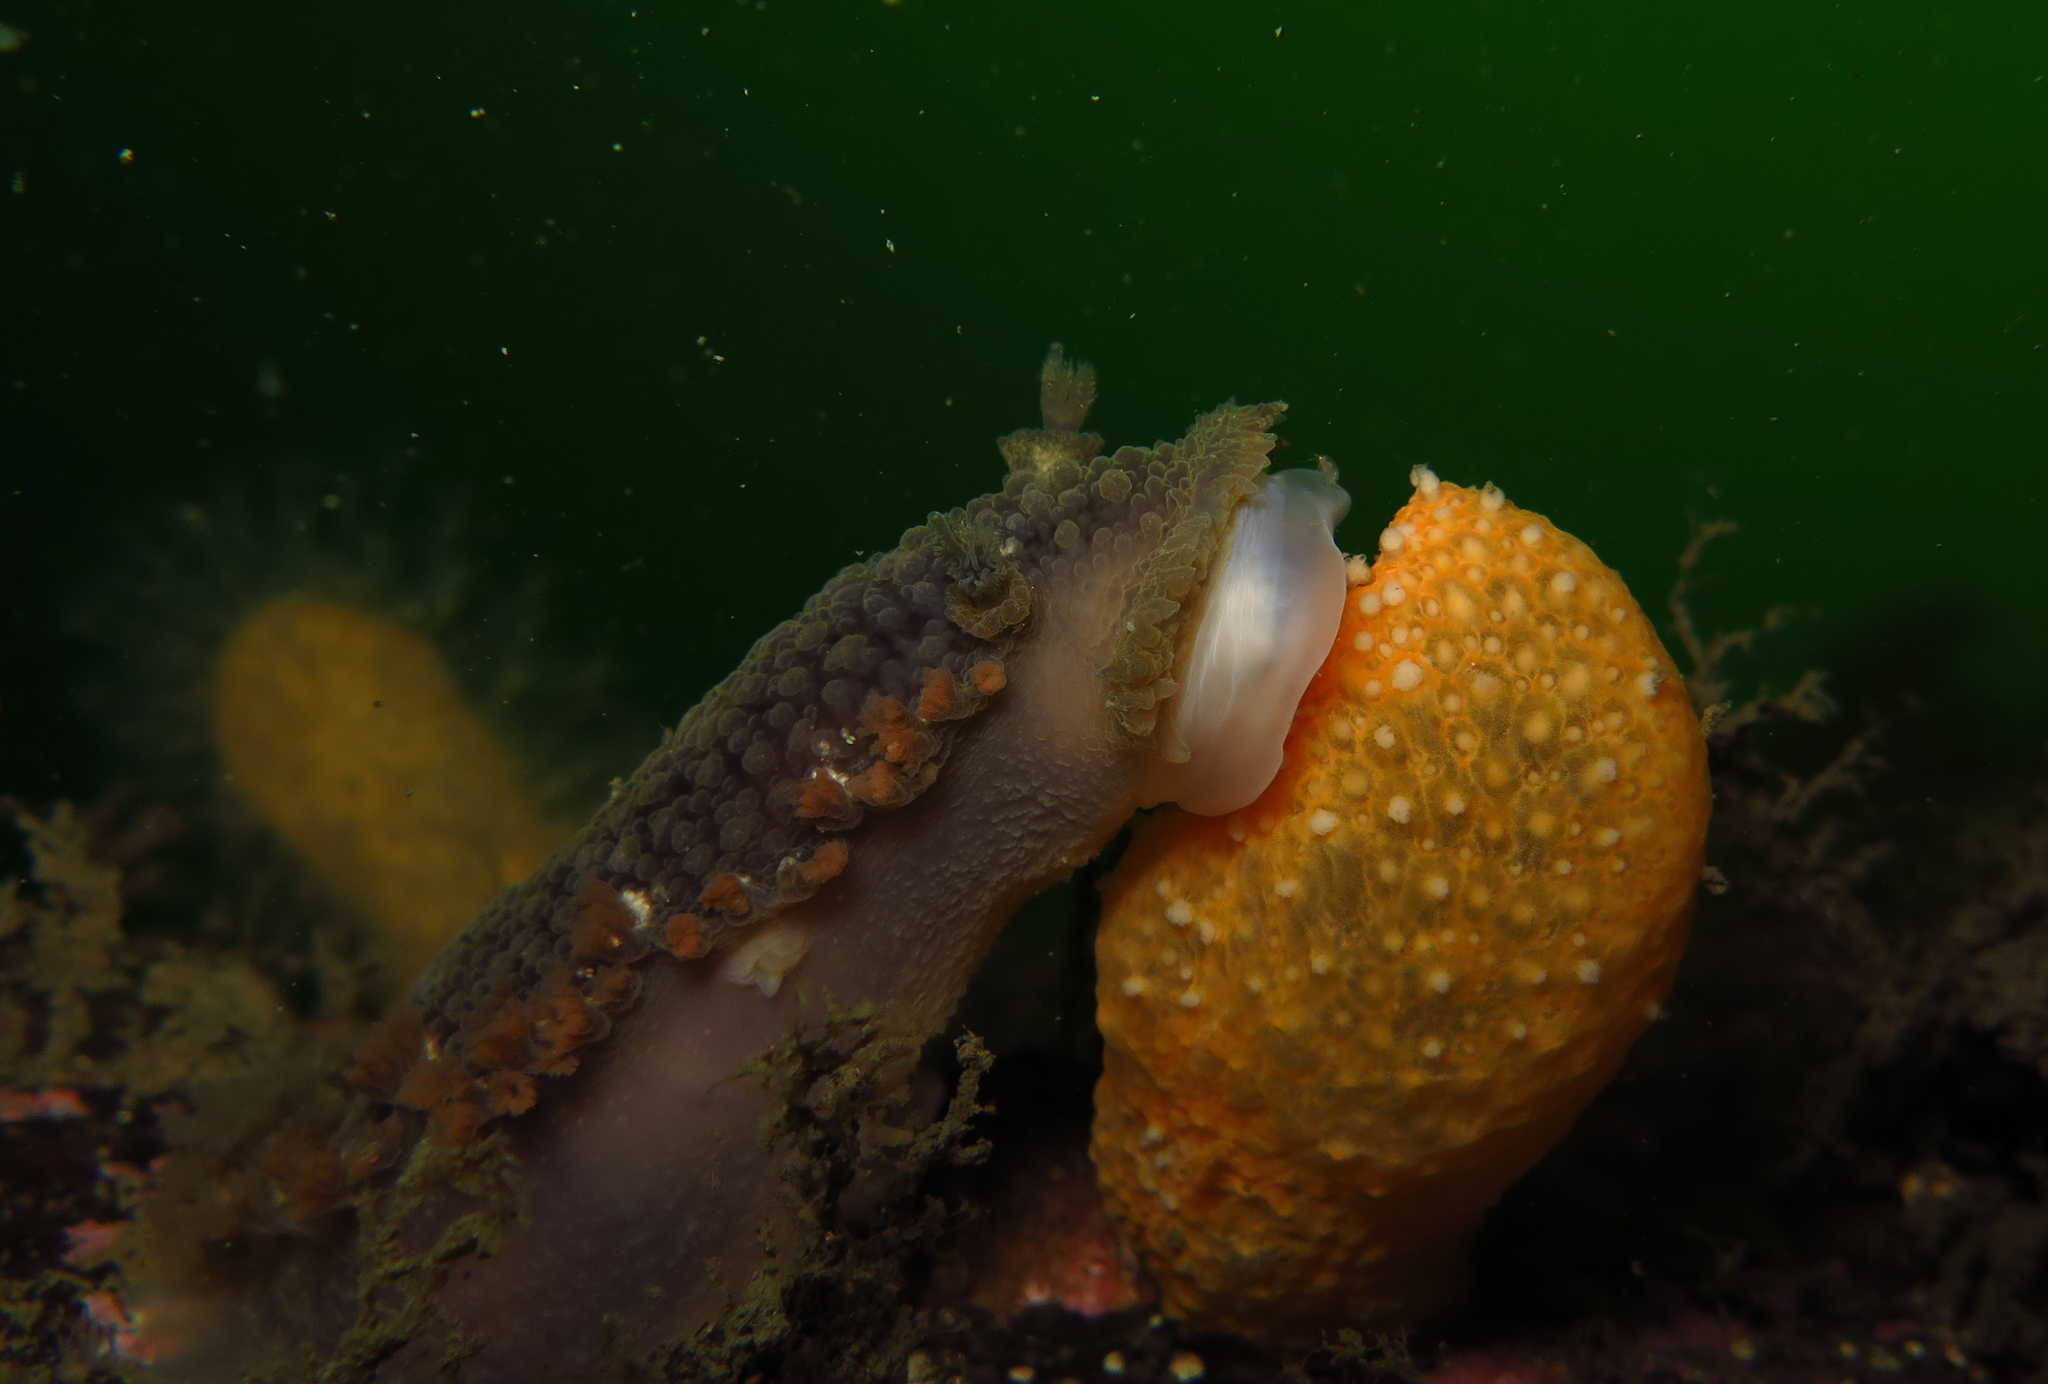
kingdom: Animalia
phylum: Mollusca
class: Gastropoda
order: Nudibranchia
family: Tritoniidae
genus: Tritonia
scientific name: Tritonia hombergii
